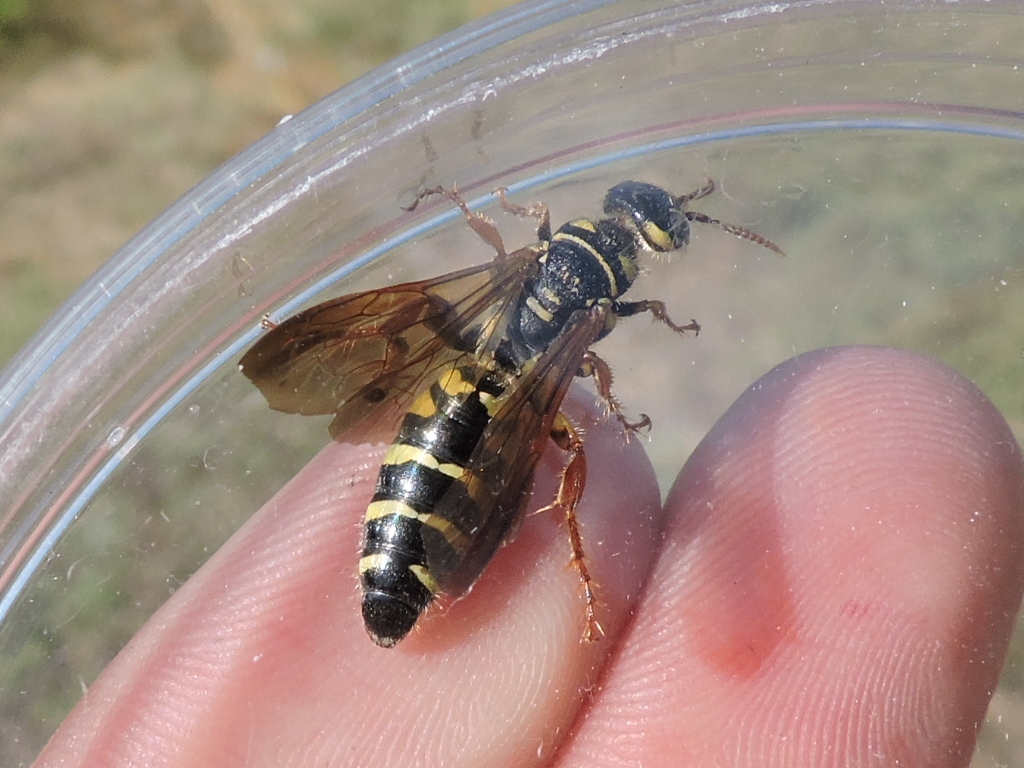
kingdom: Animalia
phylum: Arthropoda
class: Insecta
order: Hymenoptera
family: Tiphiidae
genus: Myzinum
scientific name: Myzinum
